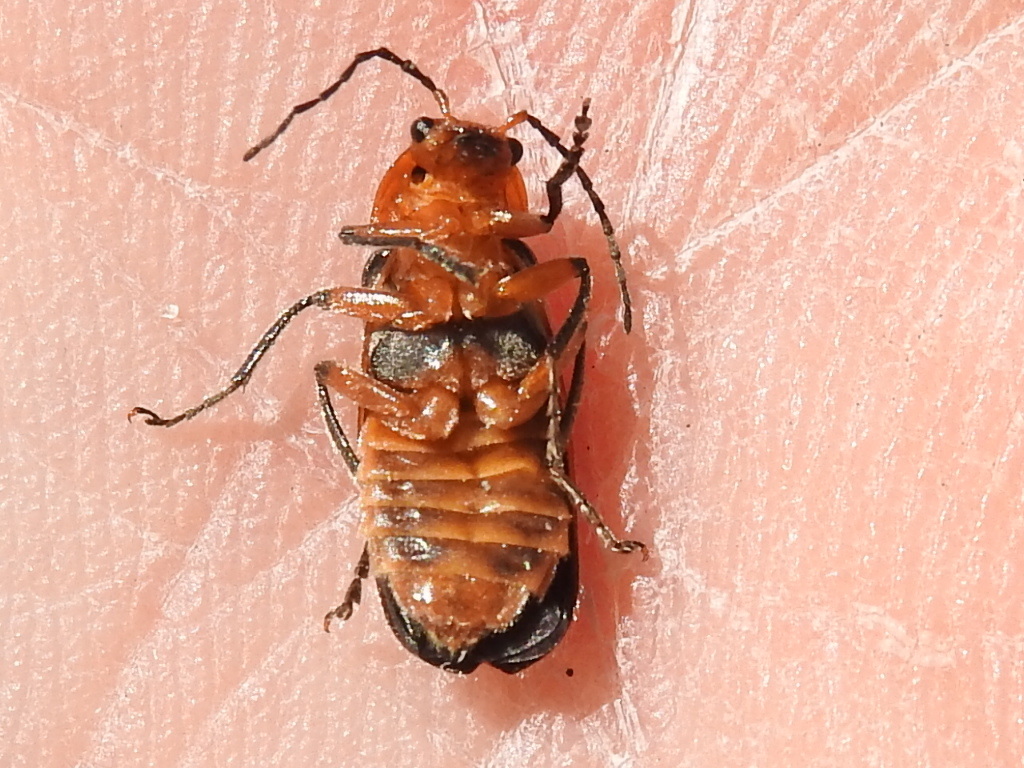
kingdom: Animalia
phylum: Arthropoda
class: Insecta
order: Coleoptera
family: Cantharidae
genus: Atalantycha
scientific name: Atalantycha bilineata
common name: Two-lined leatherwing
